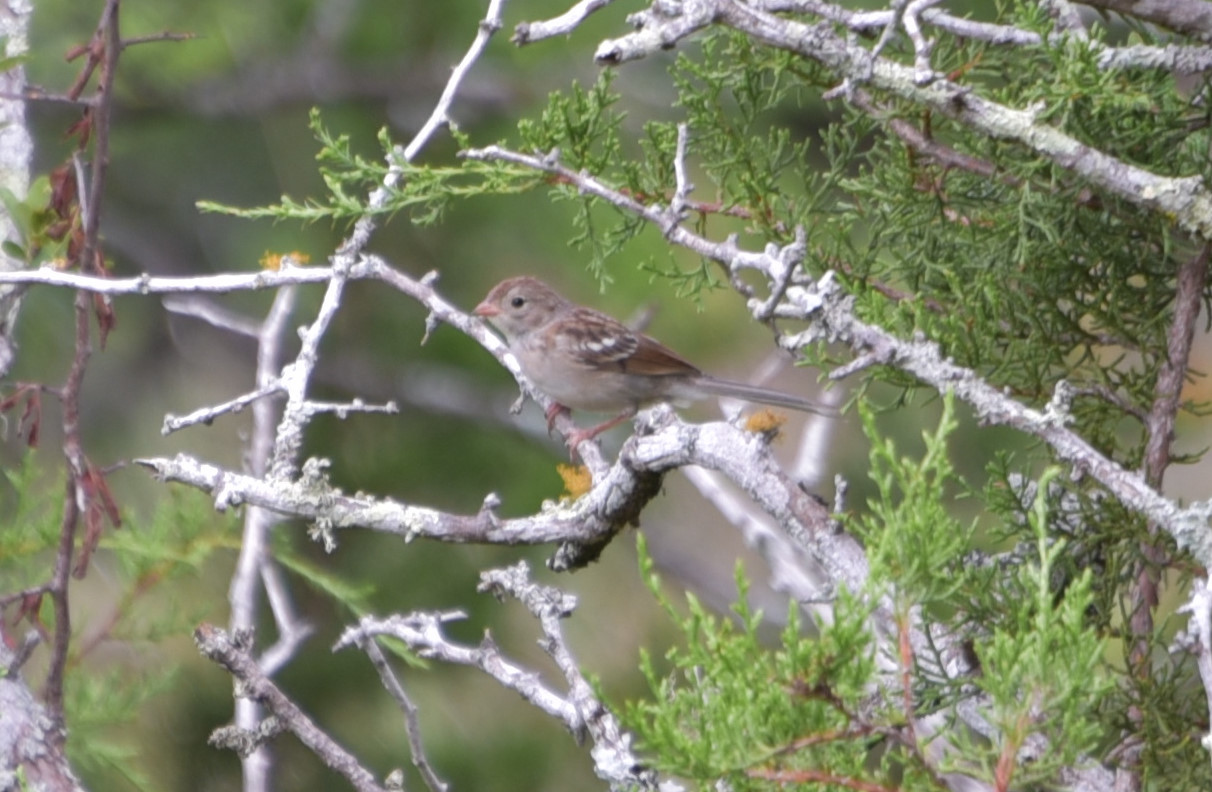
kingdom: Animalia
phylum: Chordata
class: Aves
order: Passeriformes
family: Passerellidae
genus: Spizella
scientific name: Spizella pusilla
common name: Field sparrow
